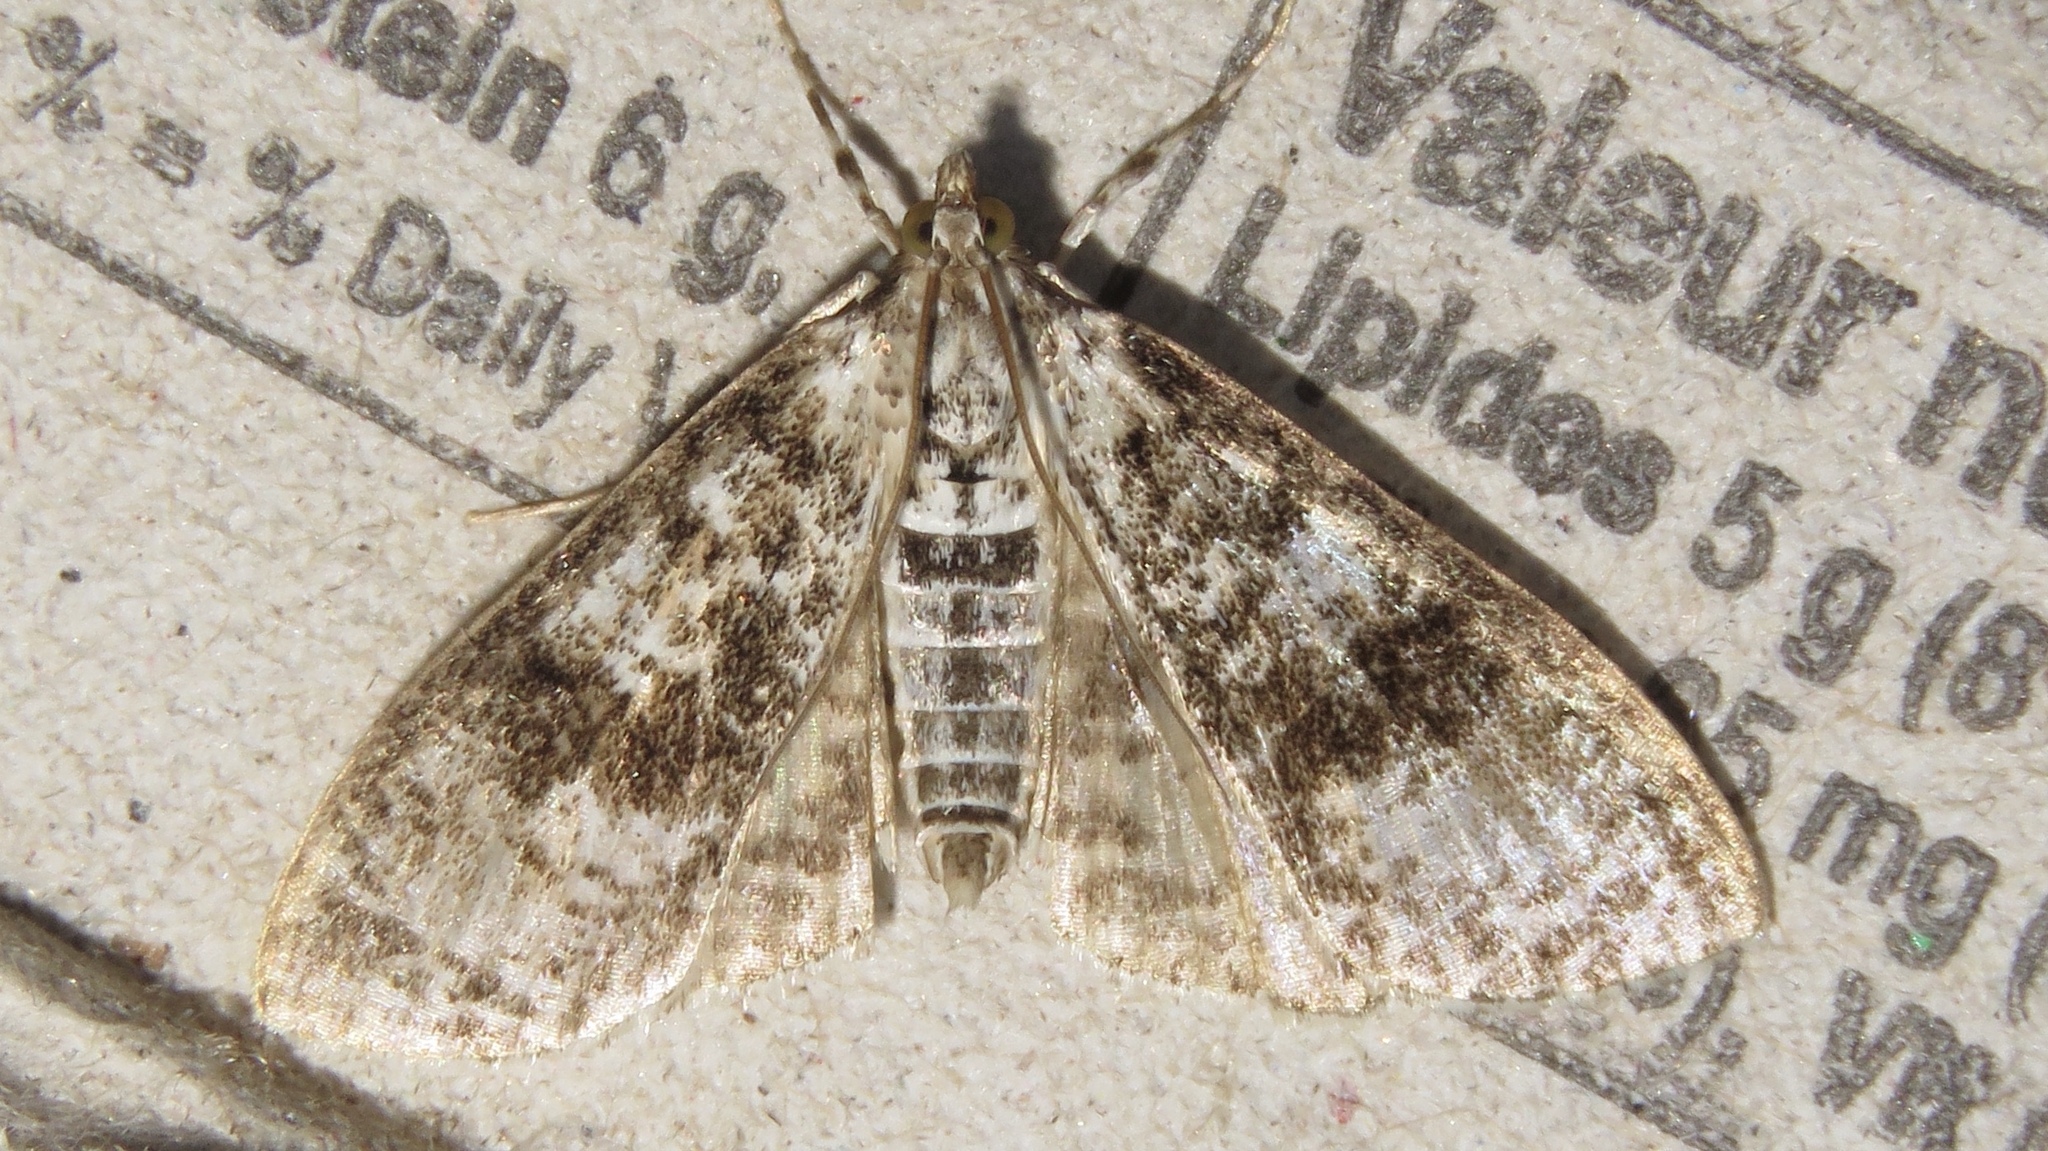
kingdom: Animalia
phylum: Arthropoda
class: Insecta
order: Lepidoptera
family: Crambidae
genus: Palpita
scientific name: Palpita magniferalis
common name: Splendid palpita moth
